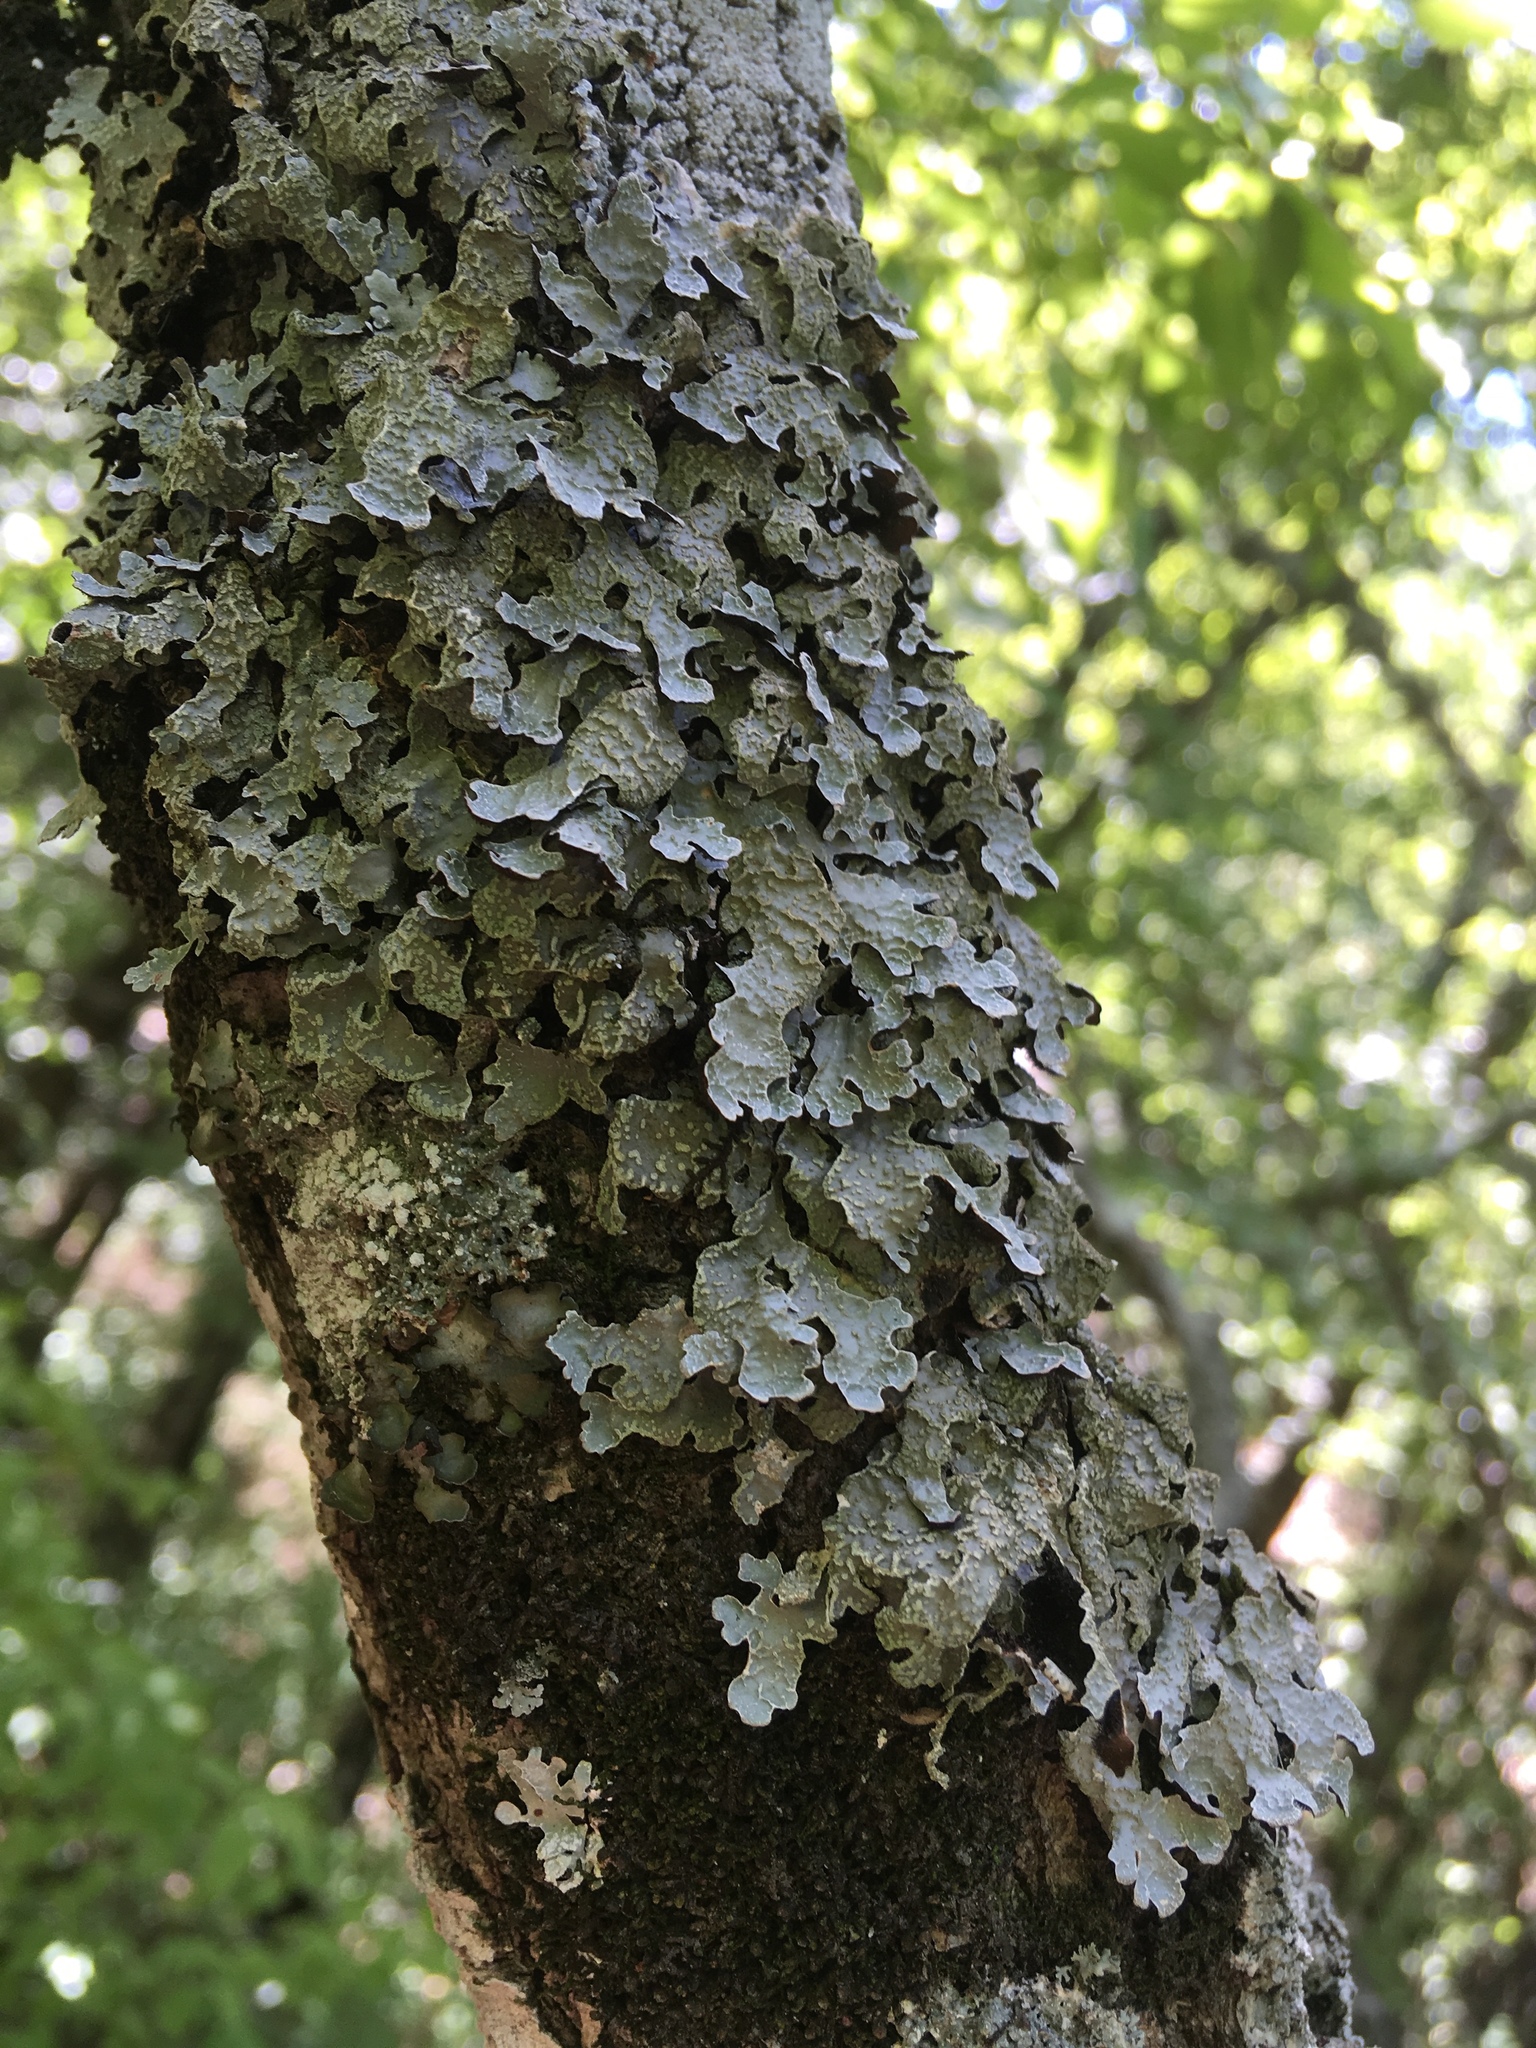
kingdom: Fungi
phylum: Ascomycota
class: Lecanoromycetes
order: Lecanorales
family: Parmeliaceae
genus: Parmelia
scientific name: Parmelia sulcata
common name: Netted shield lichen
